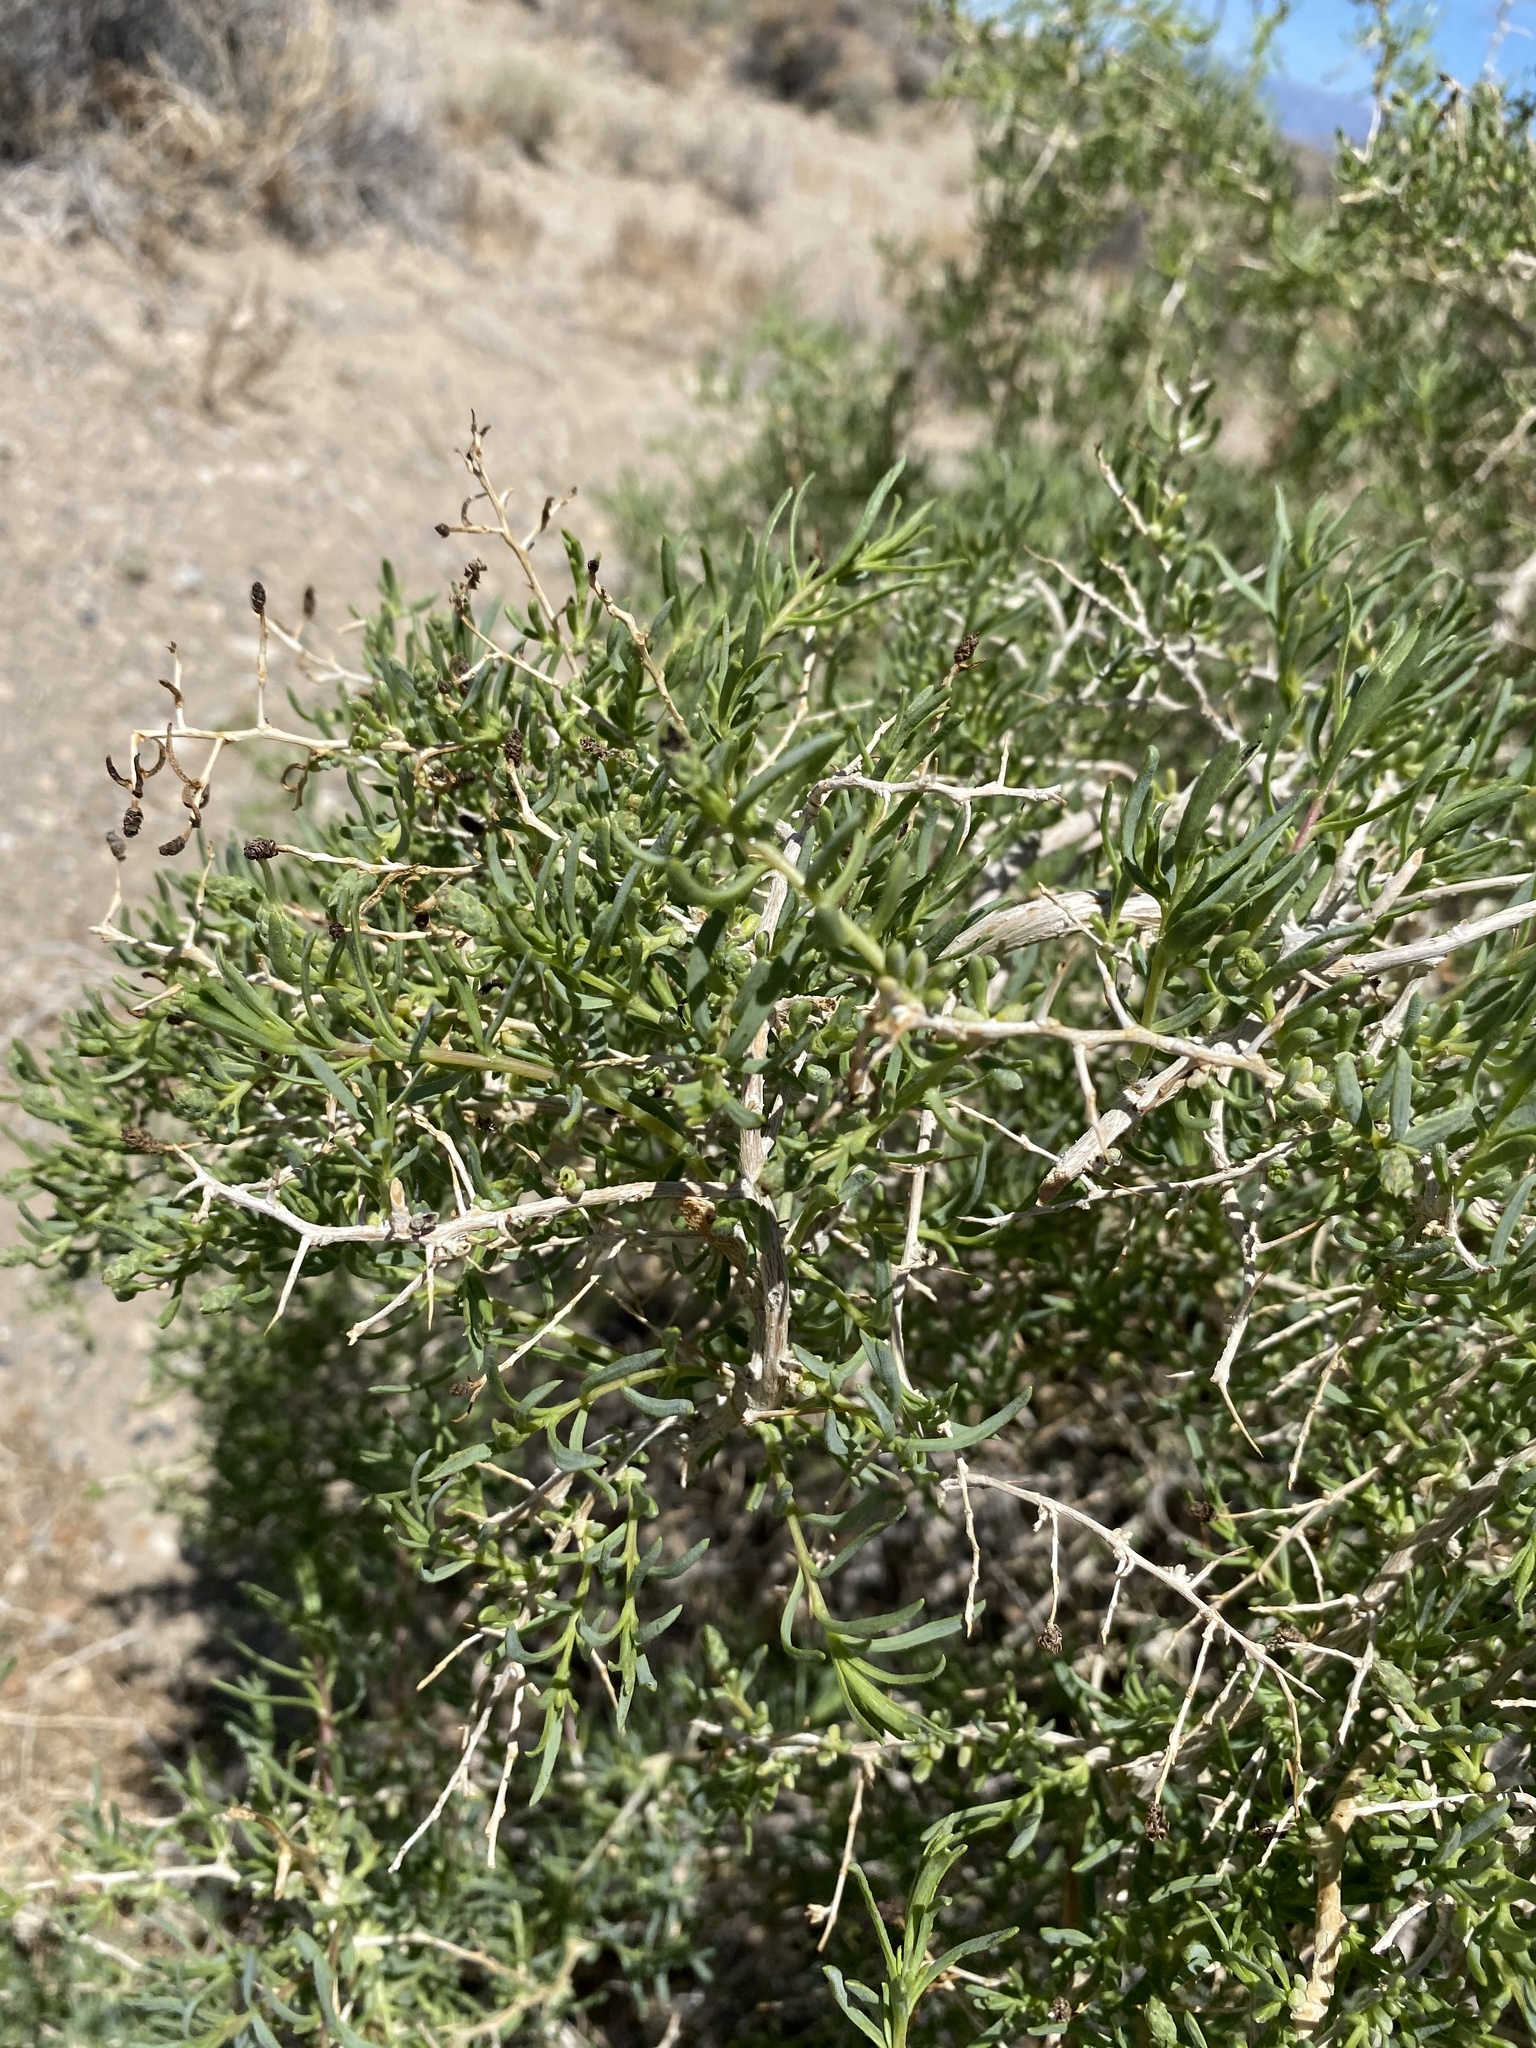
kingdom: Plantae
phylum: Tracheophyta
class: Magnoliopsida
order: Caryophyllales
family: Sarcobataceae
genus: Sarcobatus
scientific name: Sarcobatus vermiculatus
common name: Greasewood
